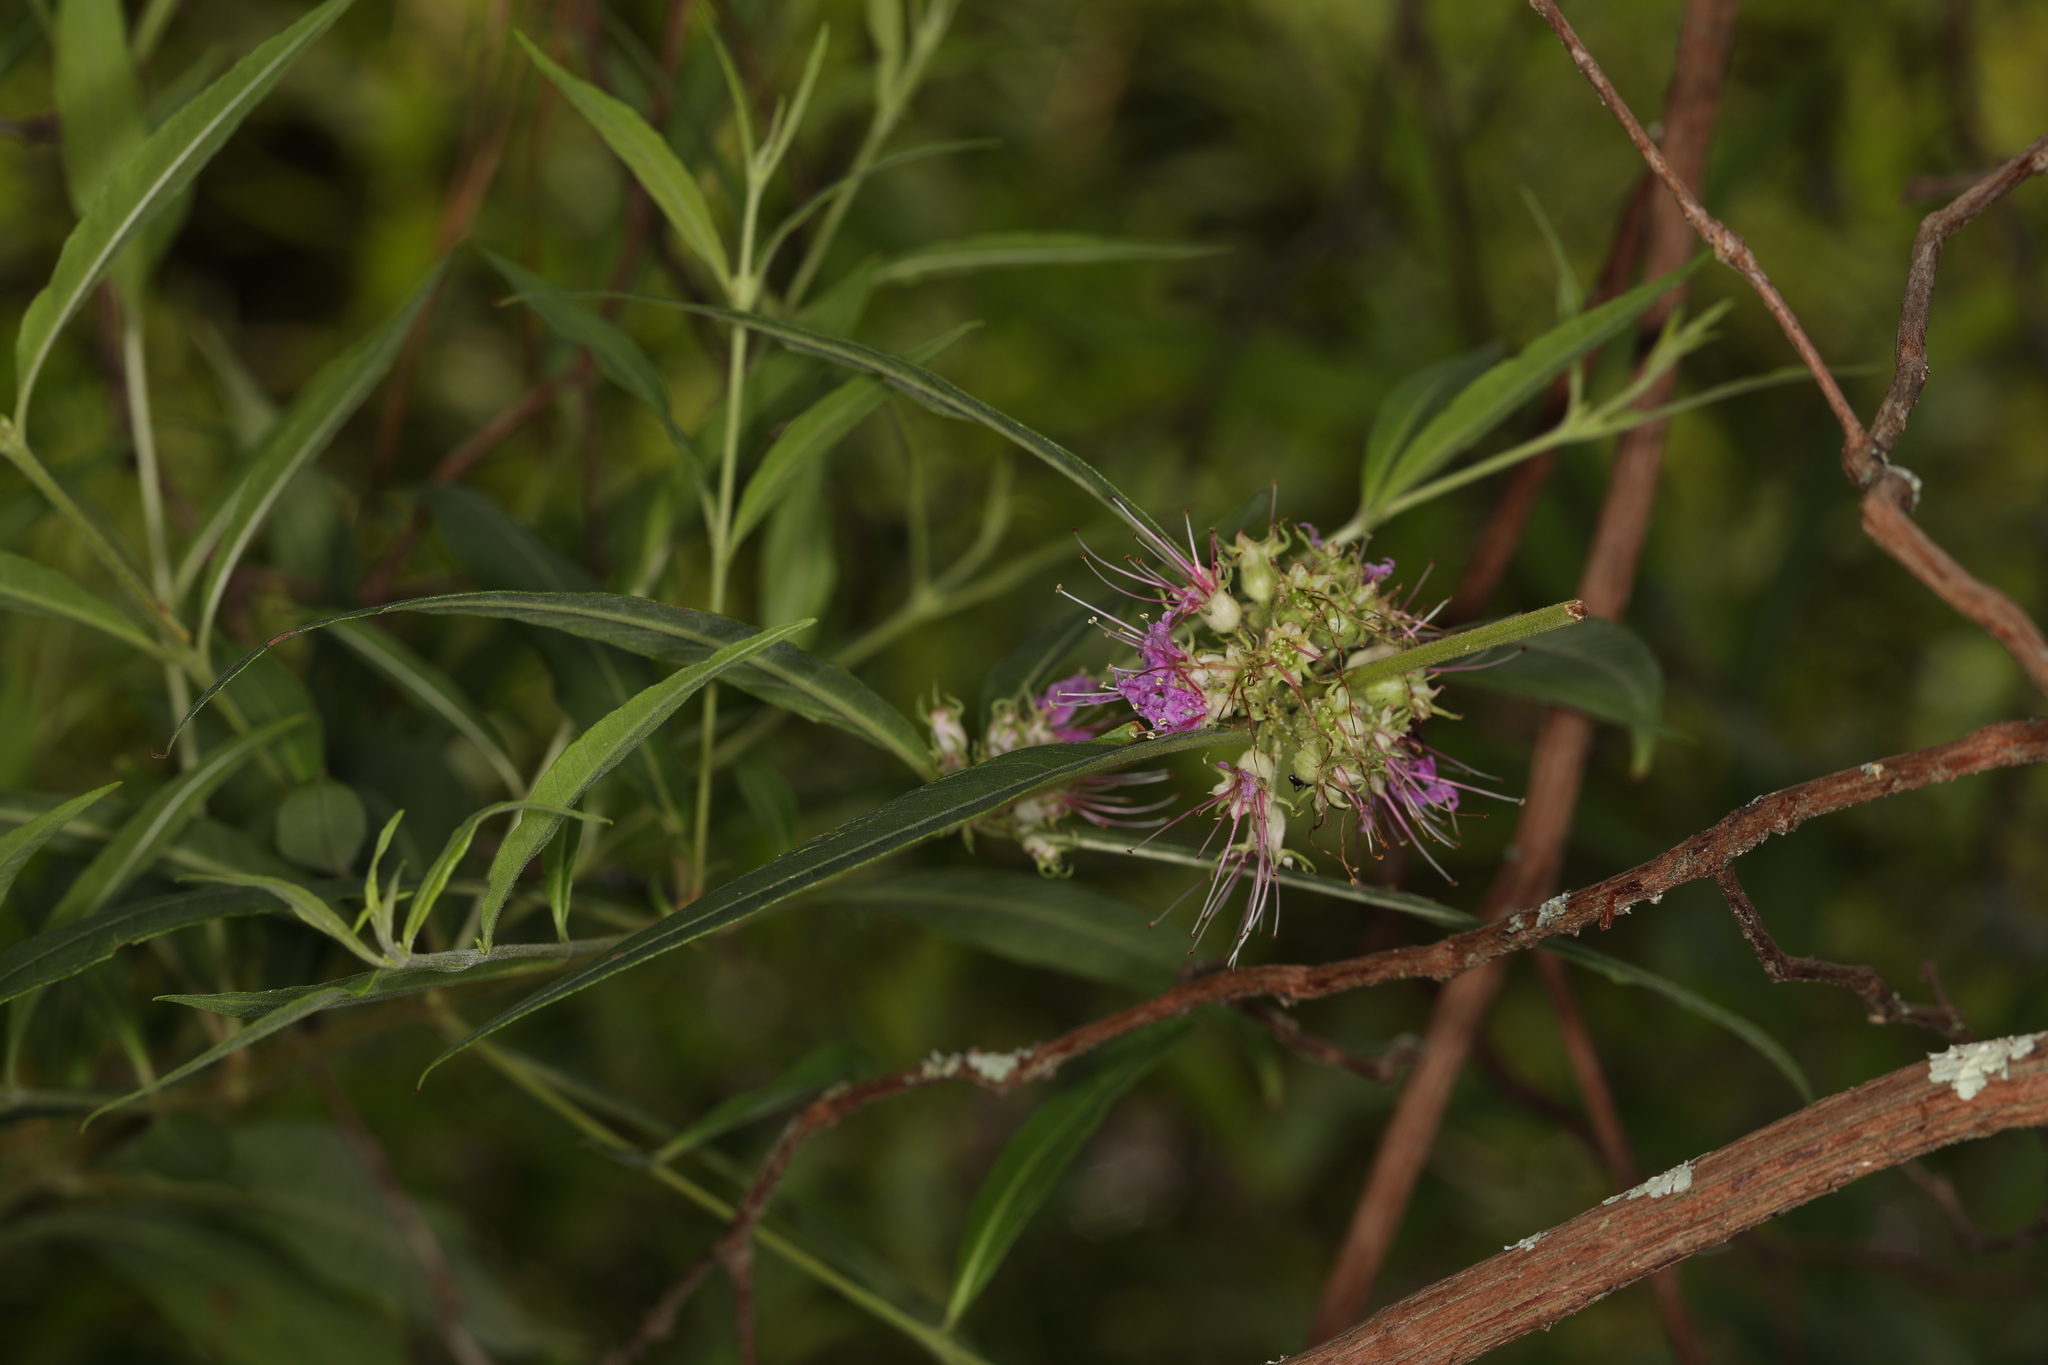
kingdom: Plantae
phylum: Tracheophyta
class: Magnoliopsida
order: Myrtales
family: Lythraceae
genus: Decodon
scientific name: Decodon verticillatus
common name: Hairy swamp loosestrife
